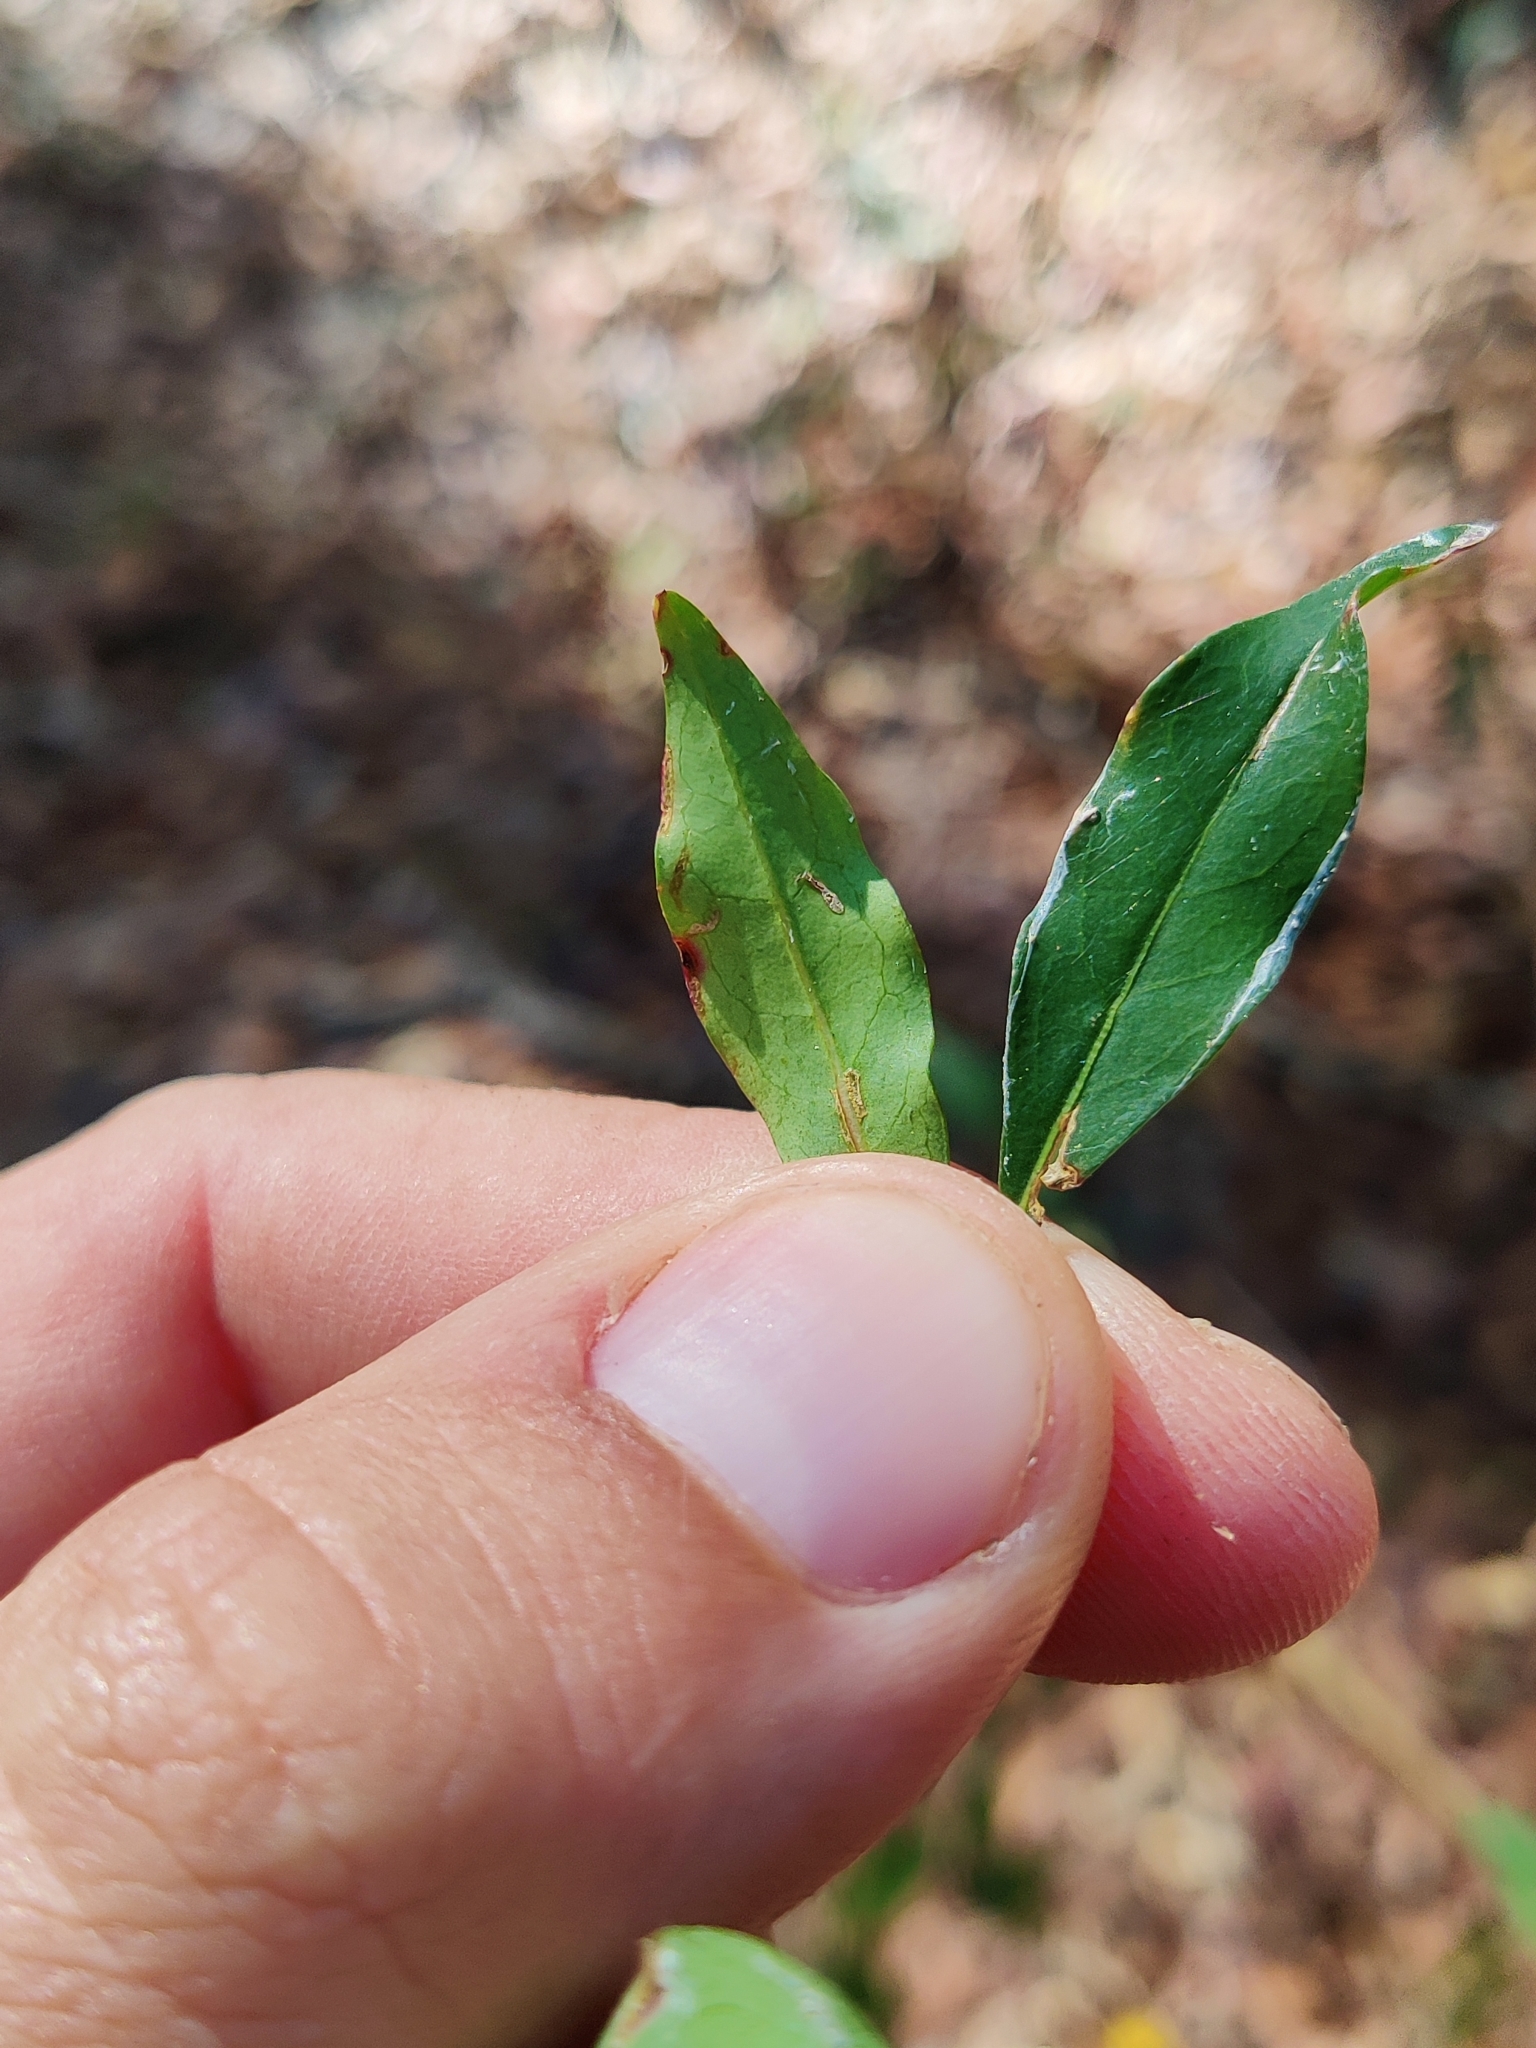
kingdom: Plantae
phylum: Tracheophyta
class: Magnoliopsida
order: Malpighiales
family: Euphorbiaceae
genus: Ditrysinia
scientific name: Ditrysinia fruticosa
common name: Gulf sebastian-bush
